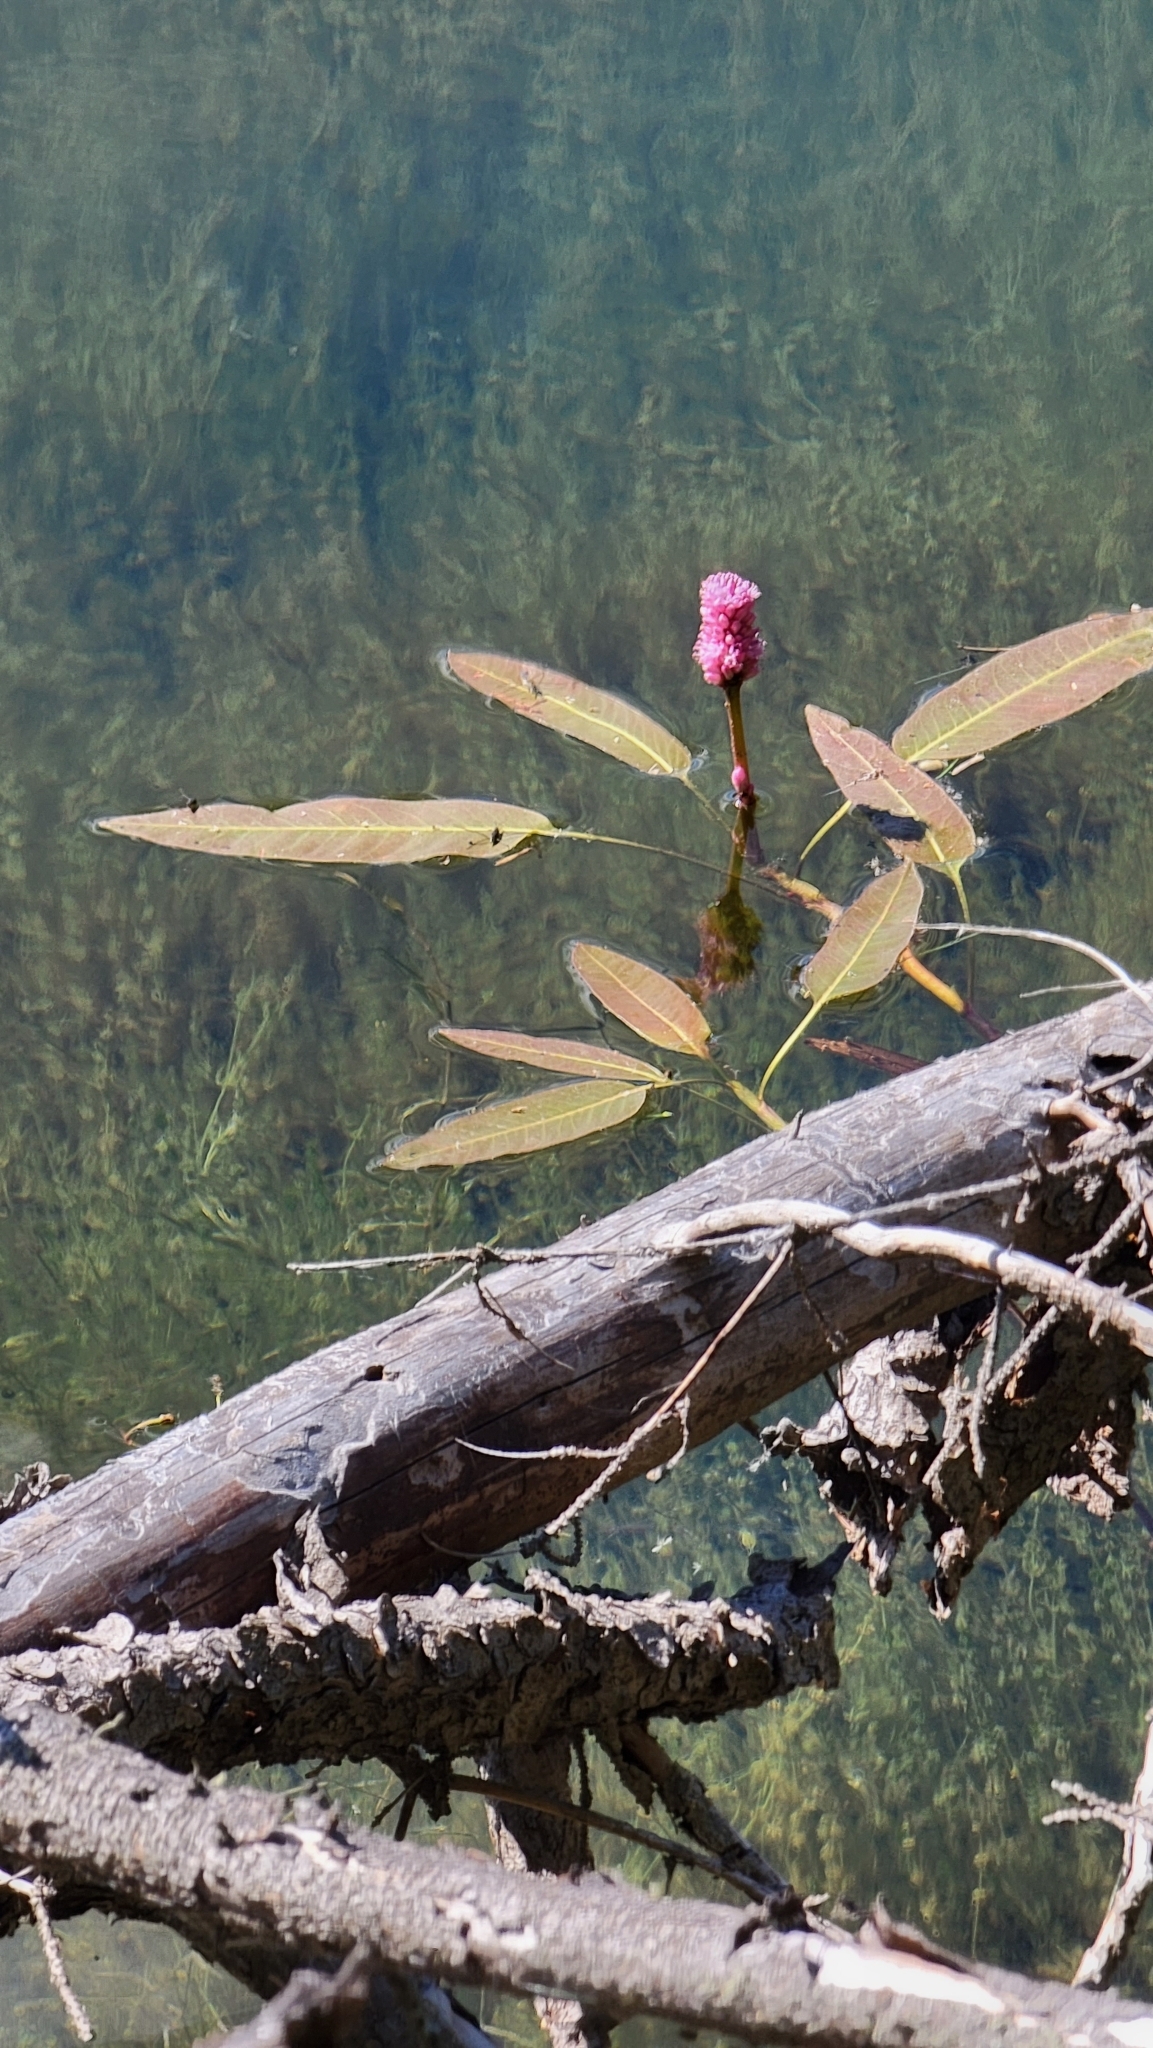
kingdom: Plantae
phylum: Tracheophyta
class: Magnoliopsida
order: Caryophyllales
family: Polygonaceae
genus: Persicaria
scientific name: Persicaria amphibia
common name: Amphibious bistort
